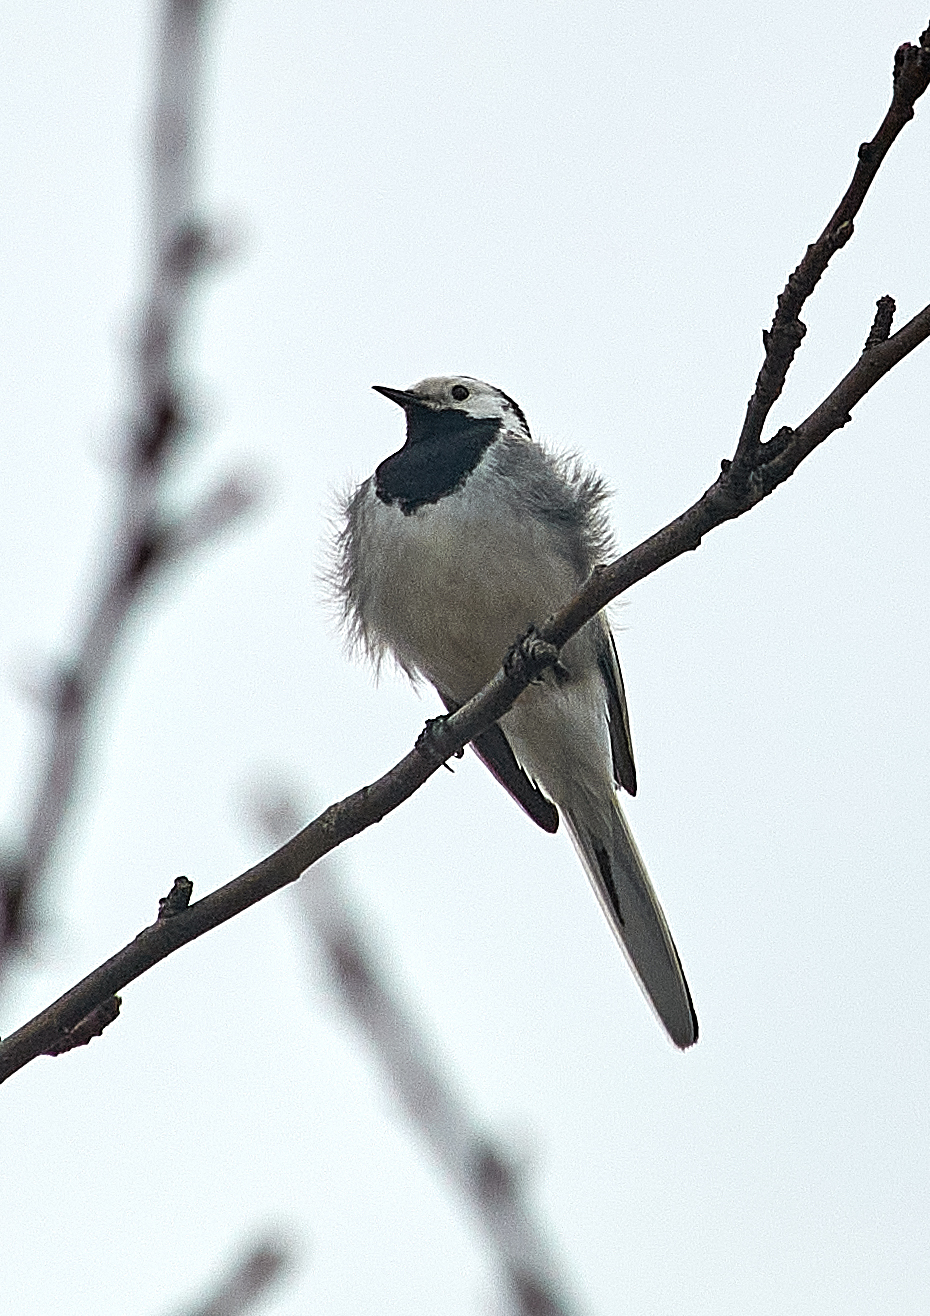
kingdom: Animalia
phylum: Chordata
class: Aves
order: Passeriformes
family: Motacillidae
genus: Motacilla
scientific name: Motacilla alba
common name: White wagtail
